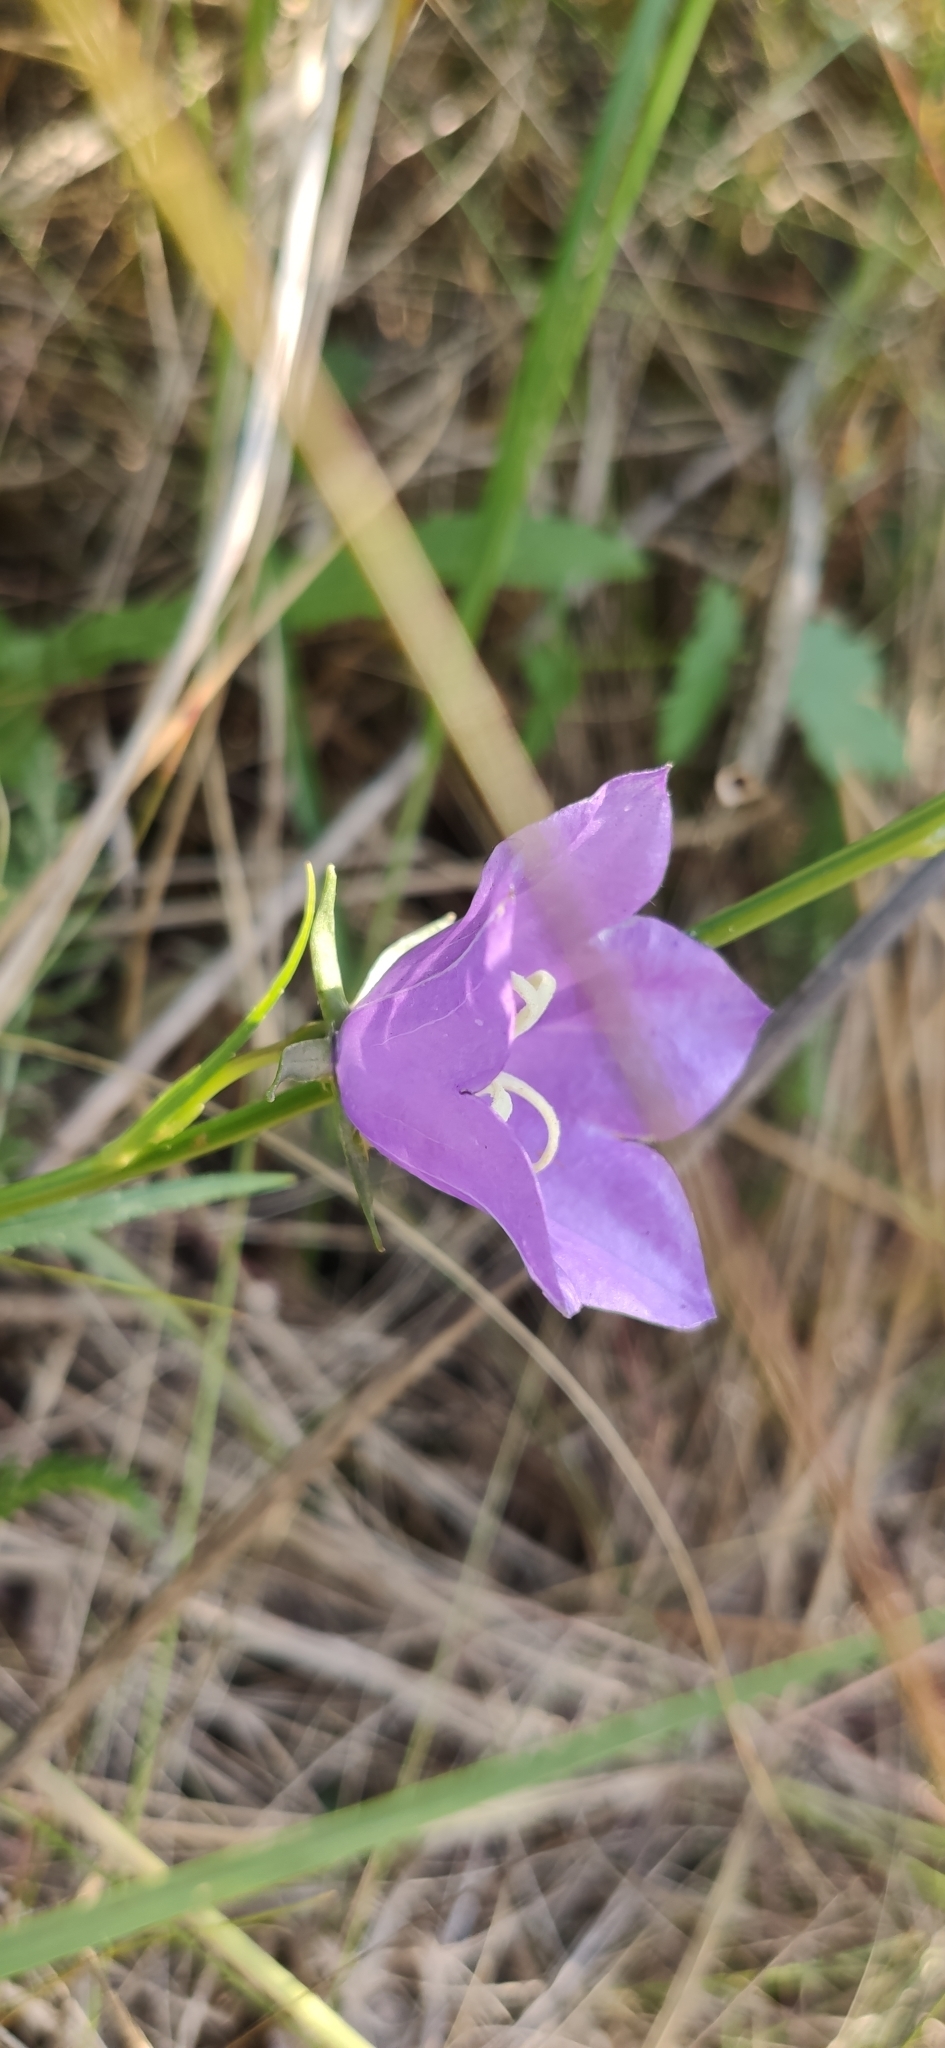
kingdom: Plantae
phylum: Tracheophyta
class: Magnoliopsida
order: Asterales
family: Campanulaceae
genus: Campanula
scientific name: Campanula persicifolia
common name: Peach-leaved bellflower
